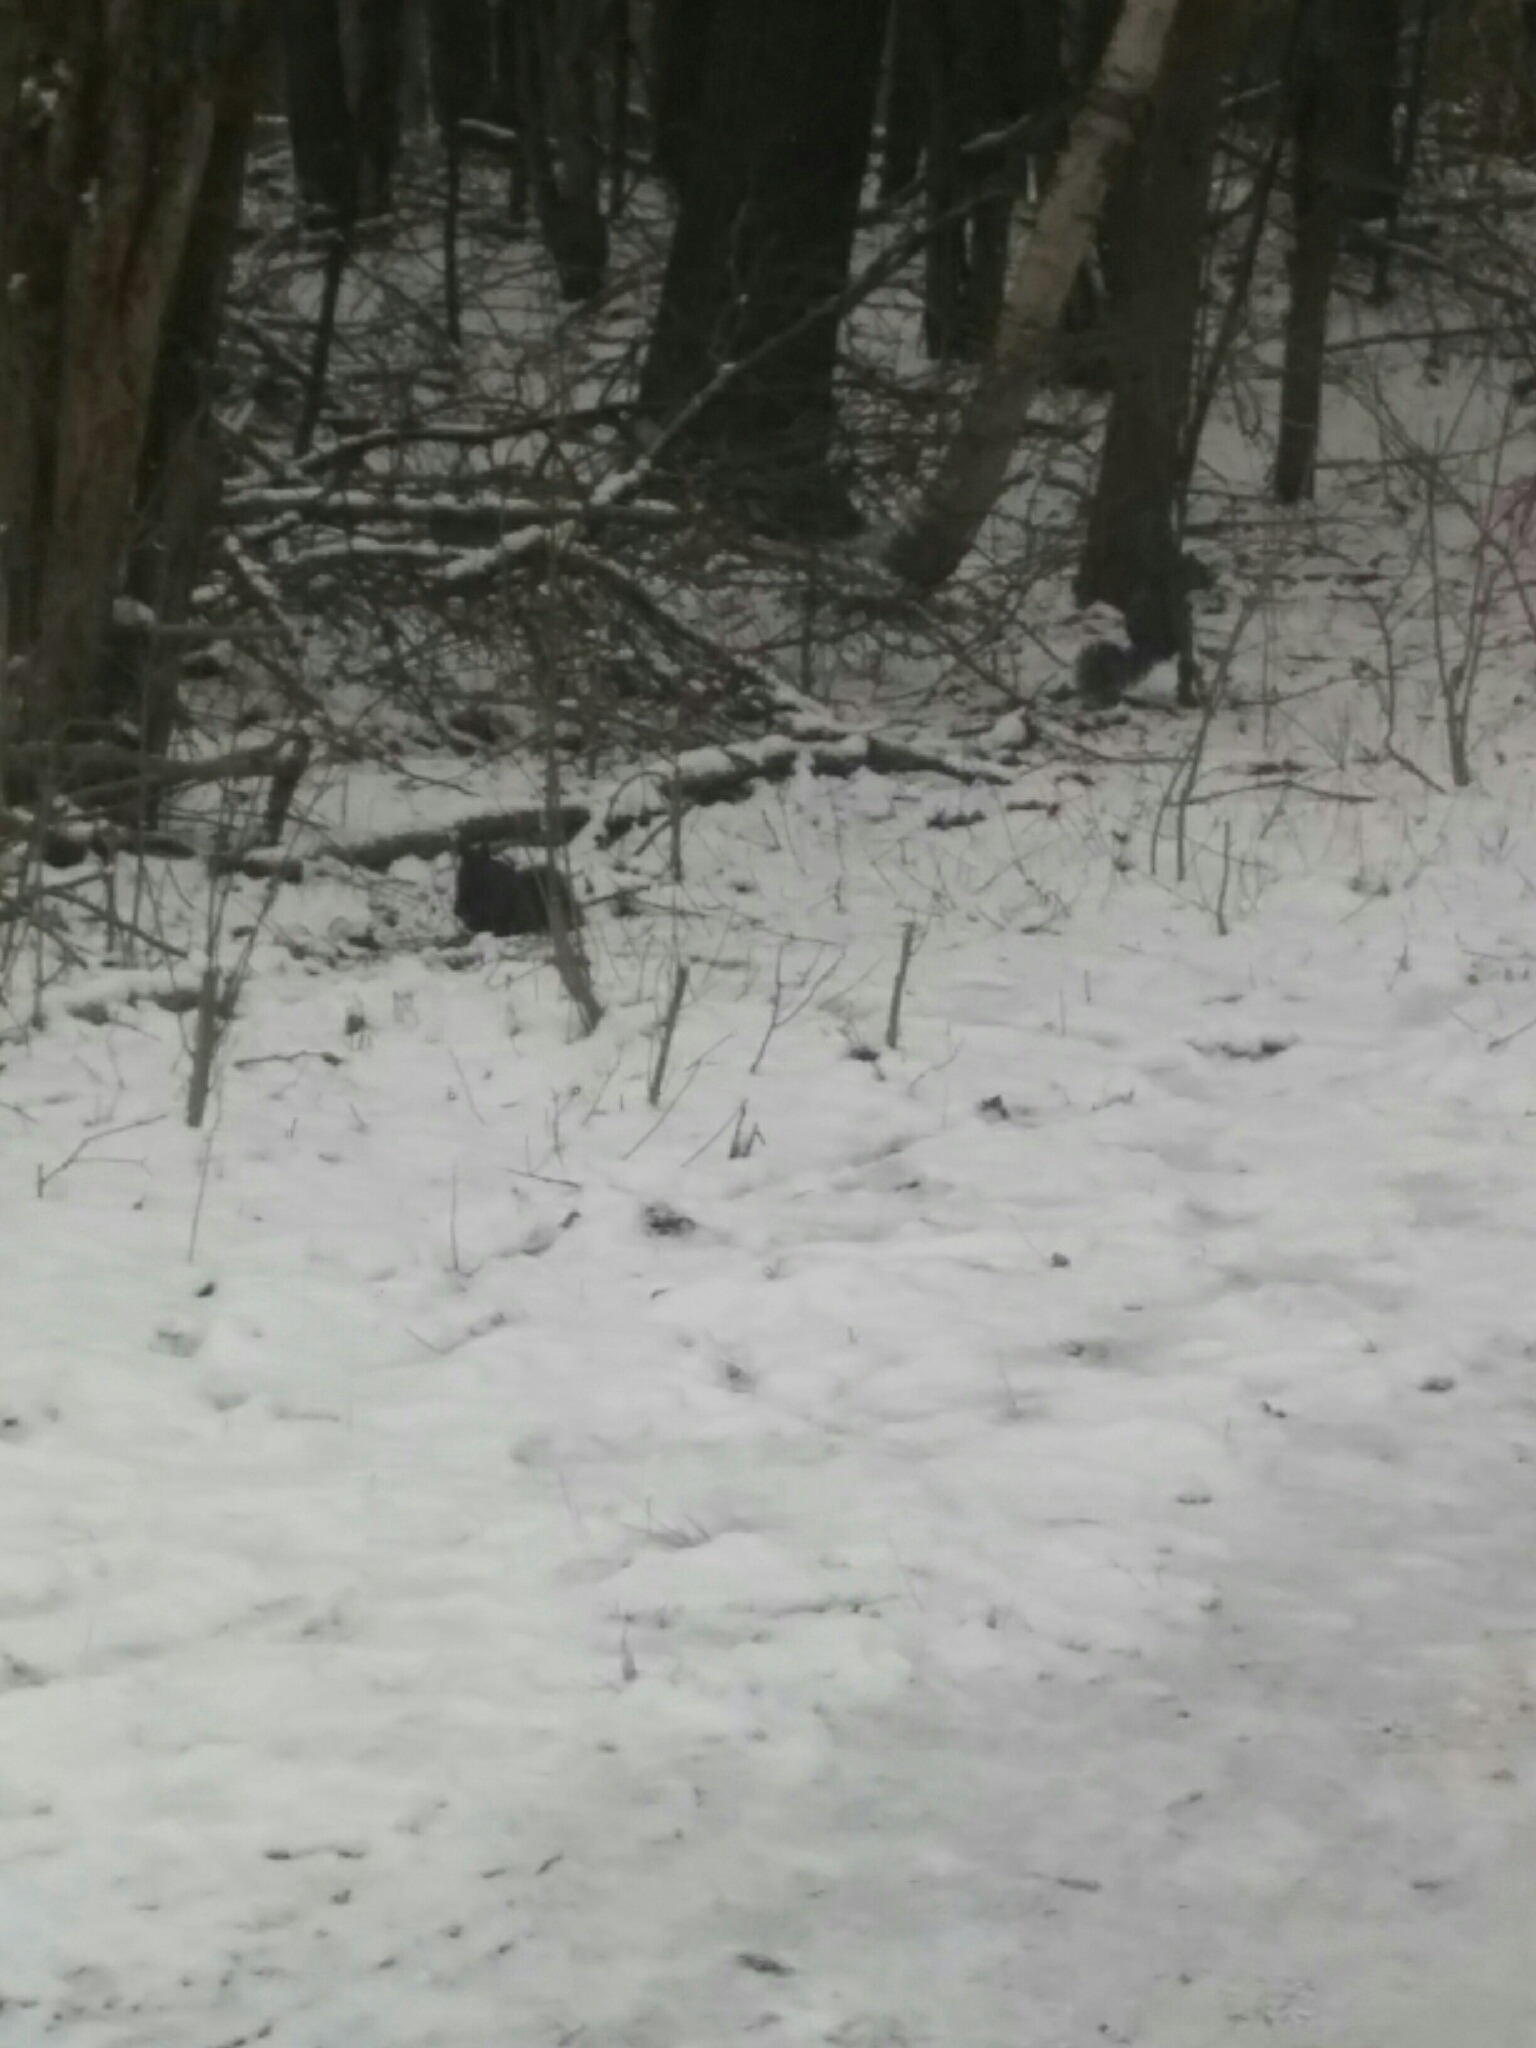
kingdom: Animalia
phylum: Chordata
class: Mammalia
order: Rodentia
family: Sciuridae
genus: Sciurus
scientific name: Sciurus carolinensis
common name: Eastern gray squirrel
